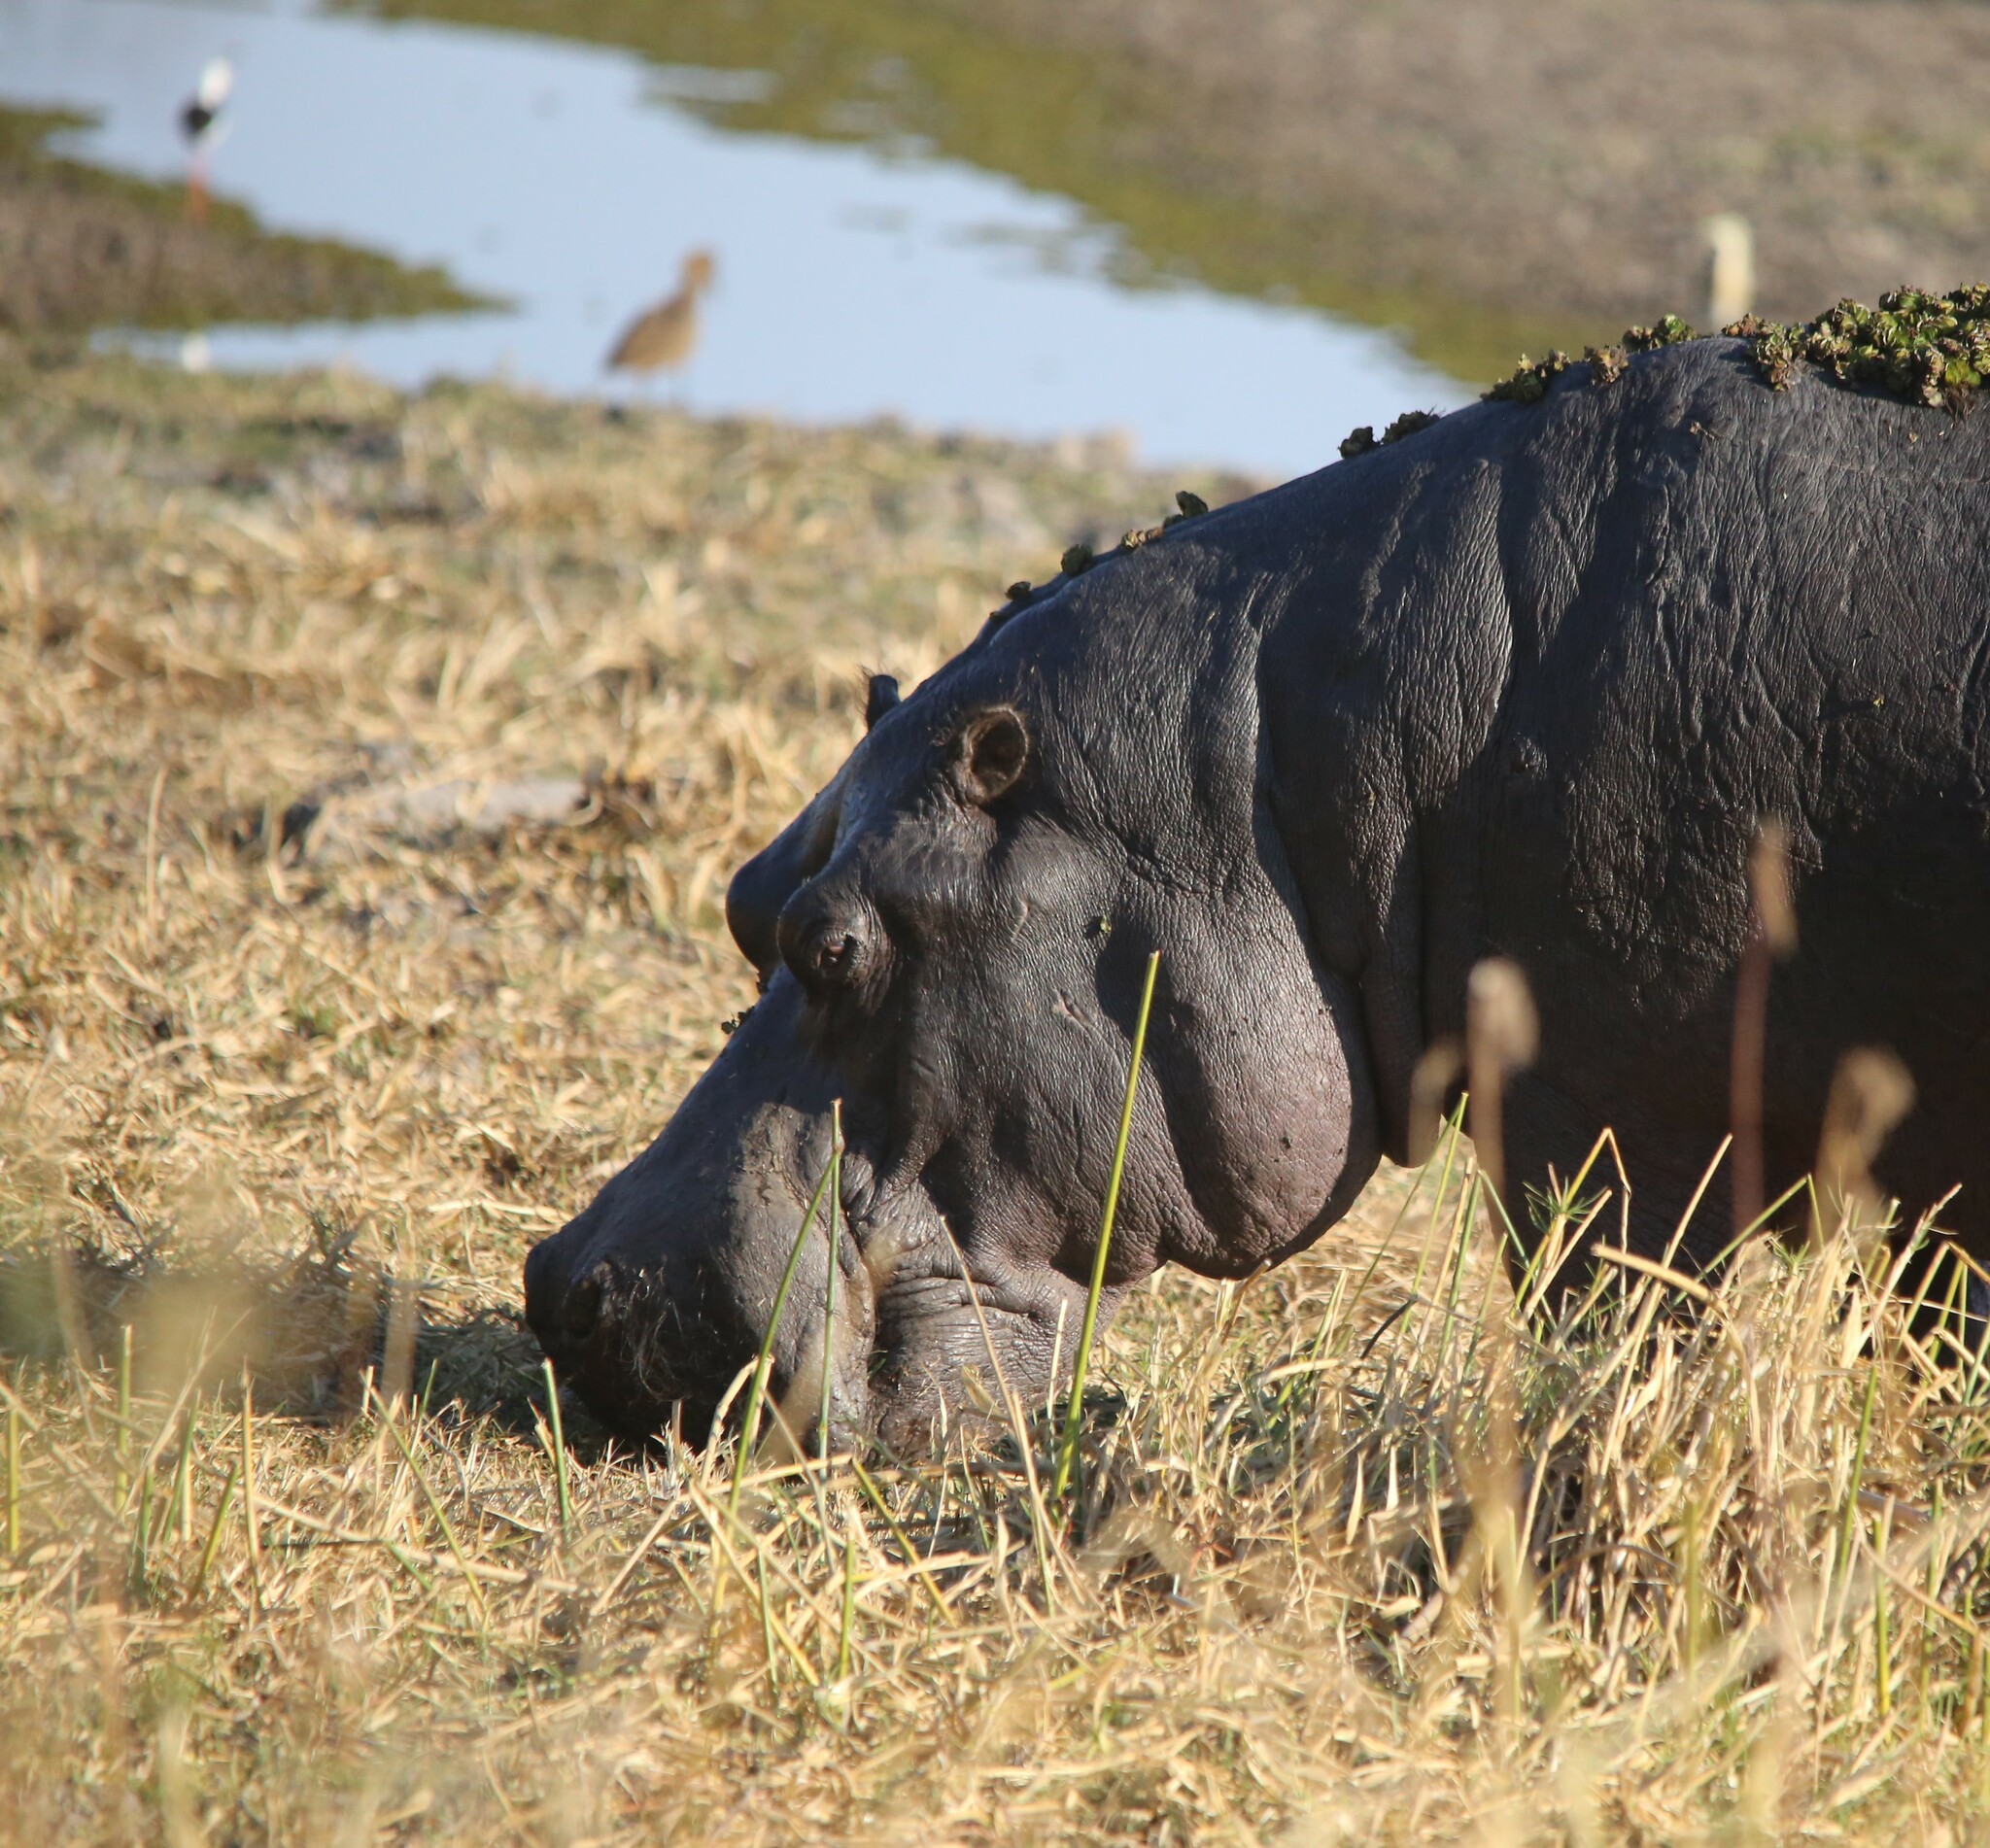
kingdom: Animalia
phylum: Chordata
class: Mammalia
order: Artiodactyla
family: Hippopotamidae
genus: Hippopotamus
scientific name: Hippopotamus amphibius
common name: Common hippopotamus
